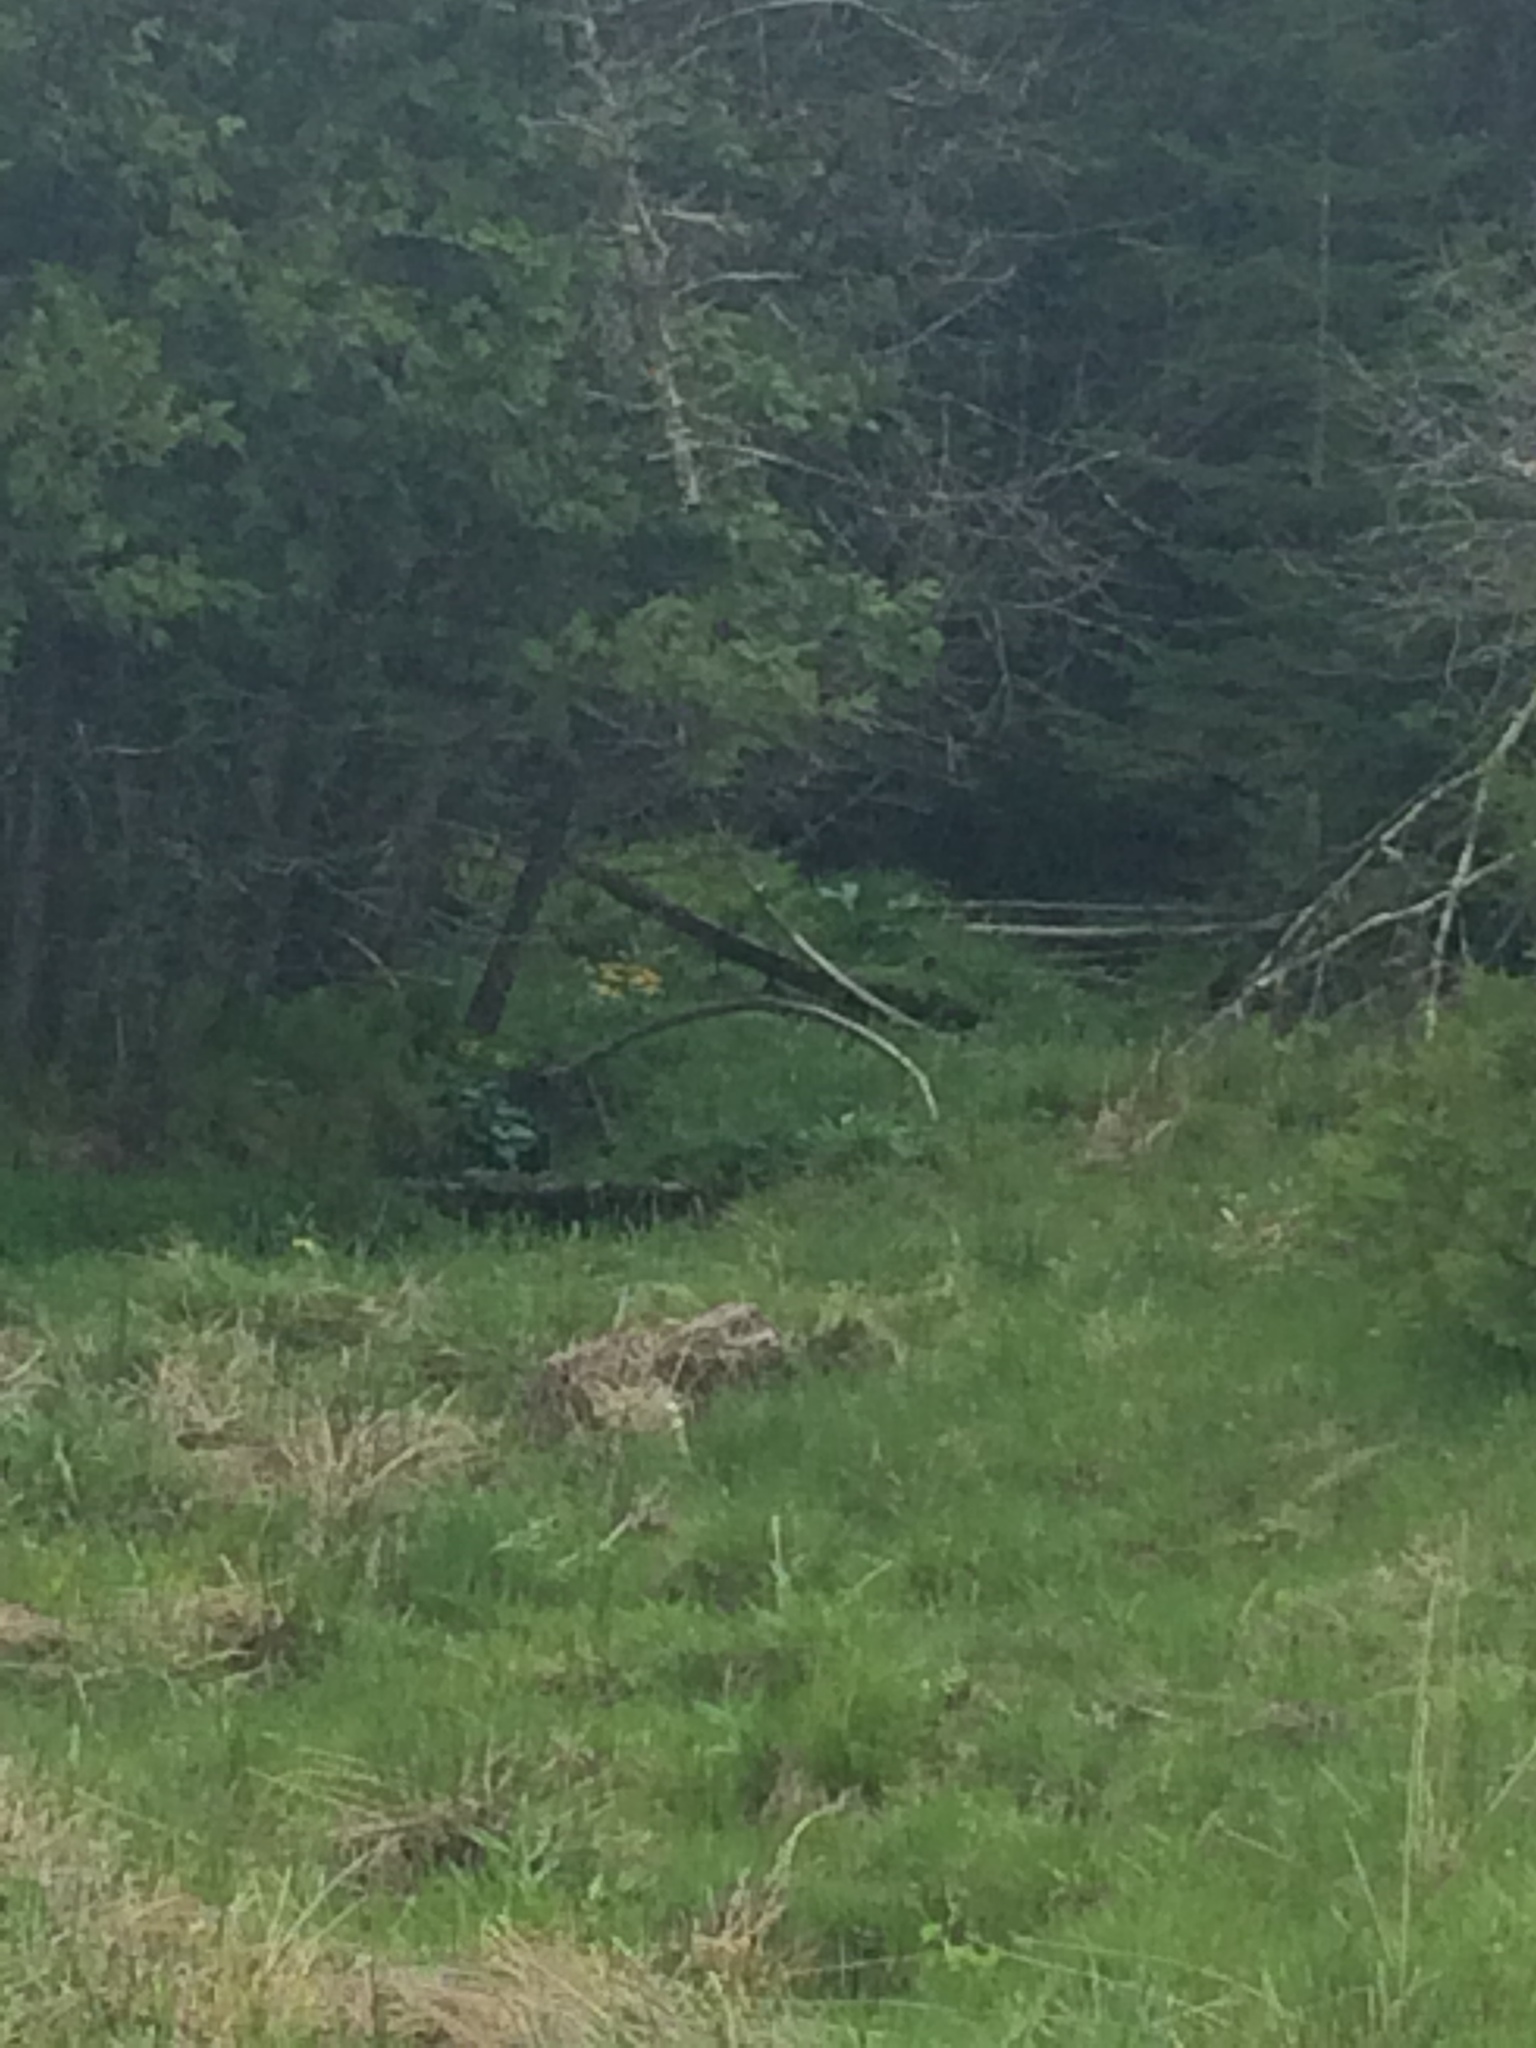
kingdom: Plantae
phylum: Tracheophyta
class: Magnoliopsida
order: Ranunculales
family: Ranunculaceae
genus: Caltha
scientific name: Caltha palustris
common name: Marsh marigold
